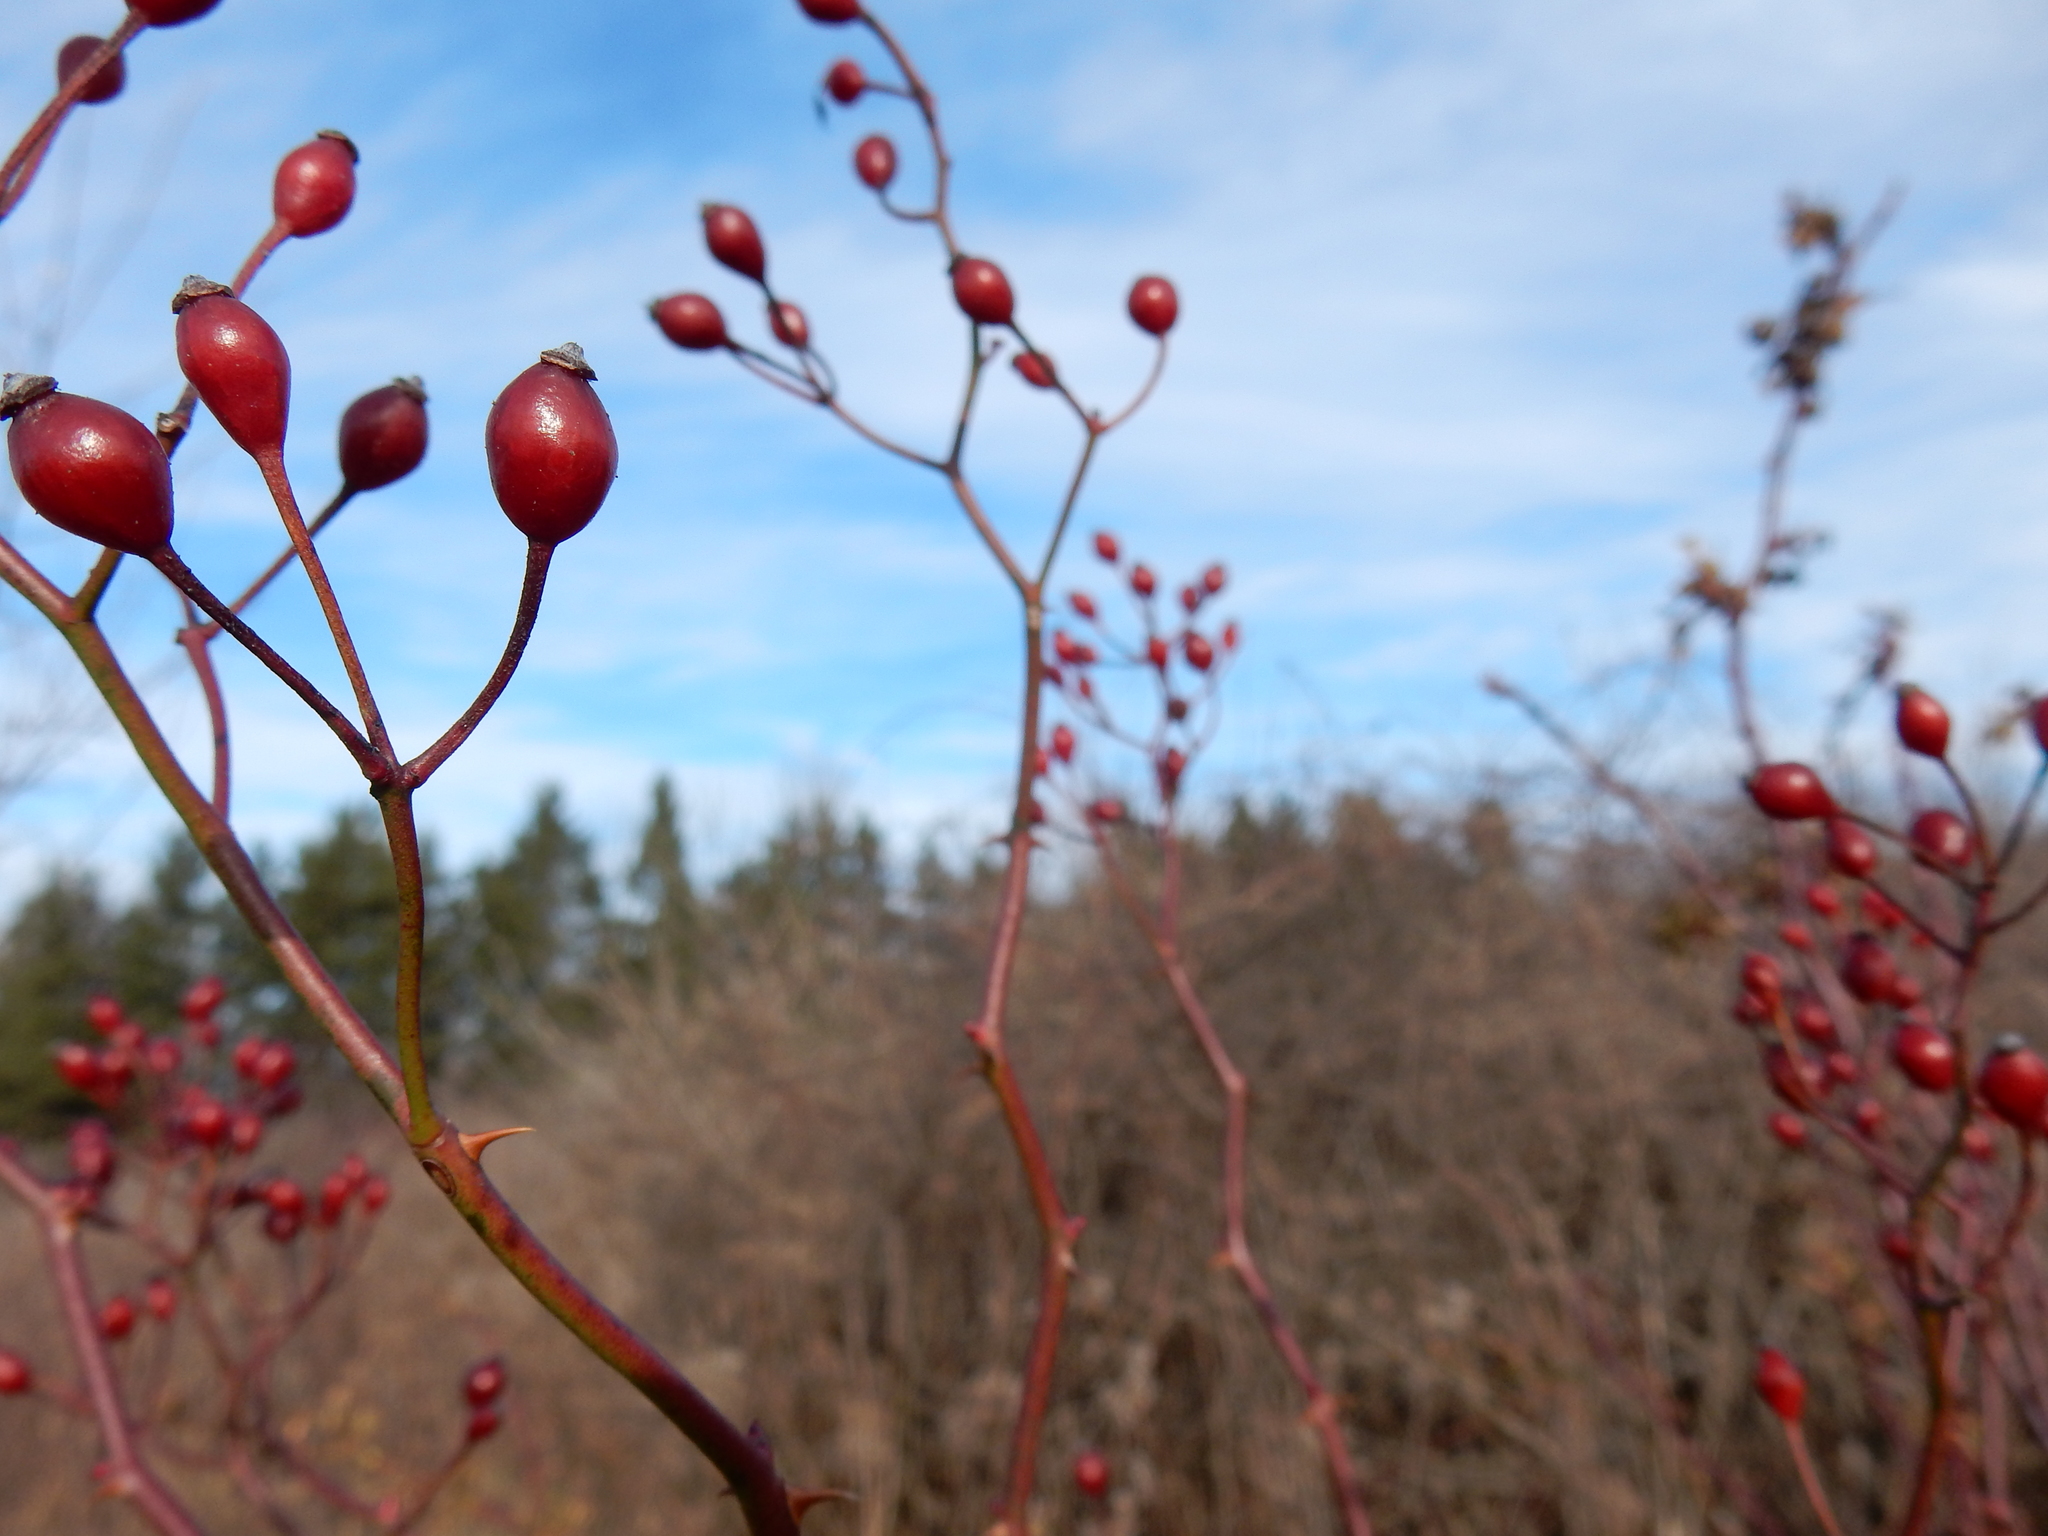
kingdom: Plantae
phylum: Tracheophyta
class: Magnoliopsida
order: Rosales
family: Rosaceae
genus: Rosa
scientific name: Rosa multiflora
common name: Multiflora rose
